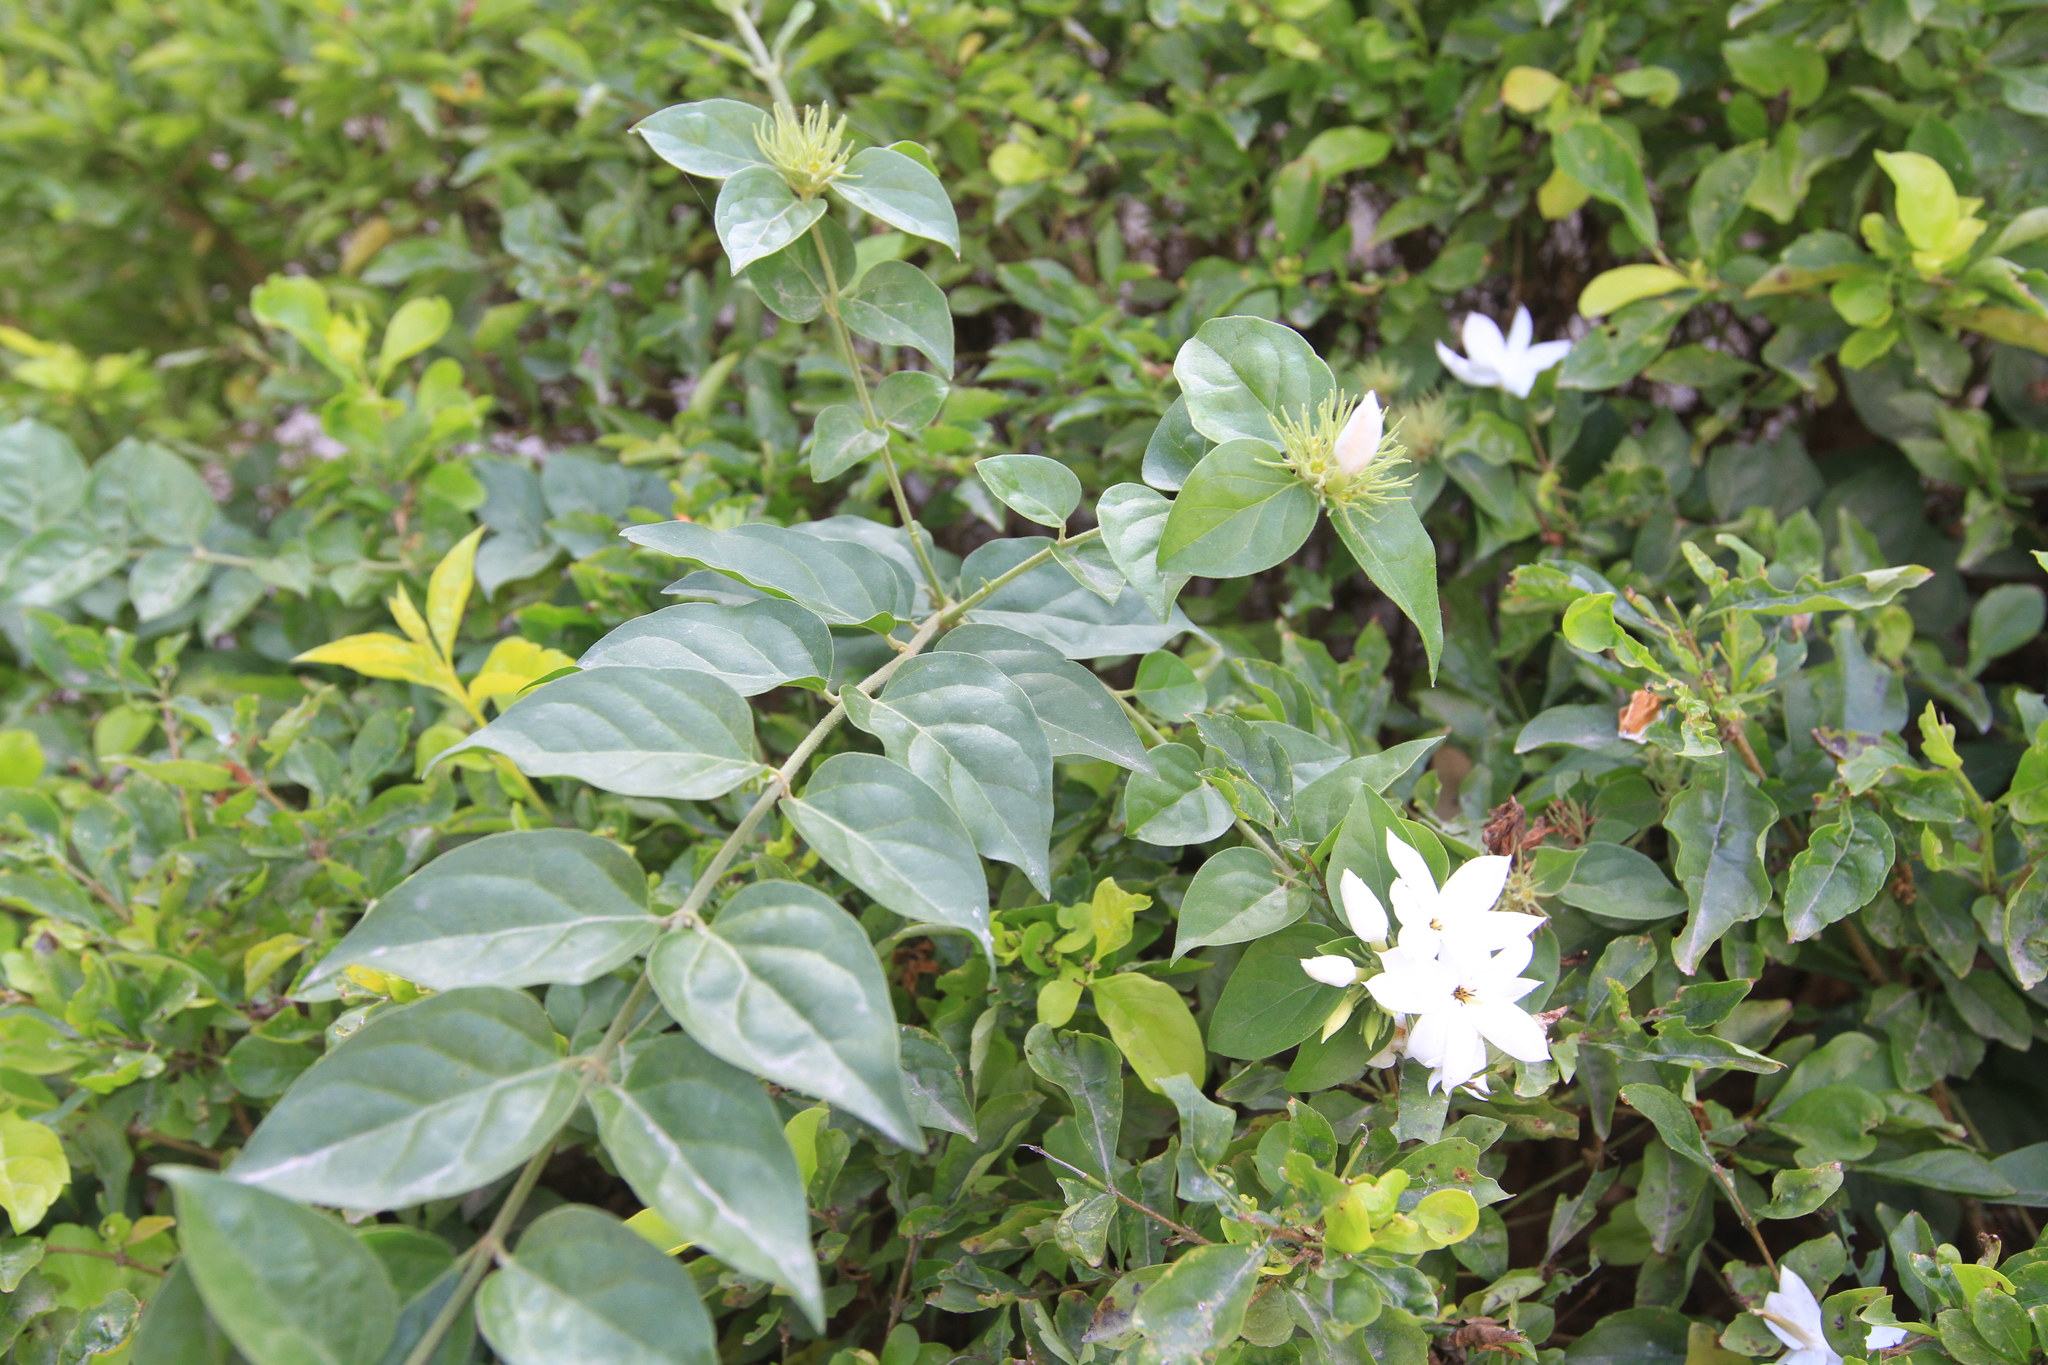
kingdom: Plantae
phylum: Tracheophyta
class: Magnoliopsida
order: Lamiales
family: Oleaceae
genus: Jasminum
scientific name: Jasminum multiflorum
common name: Star jasmine
